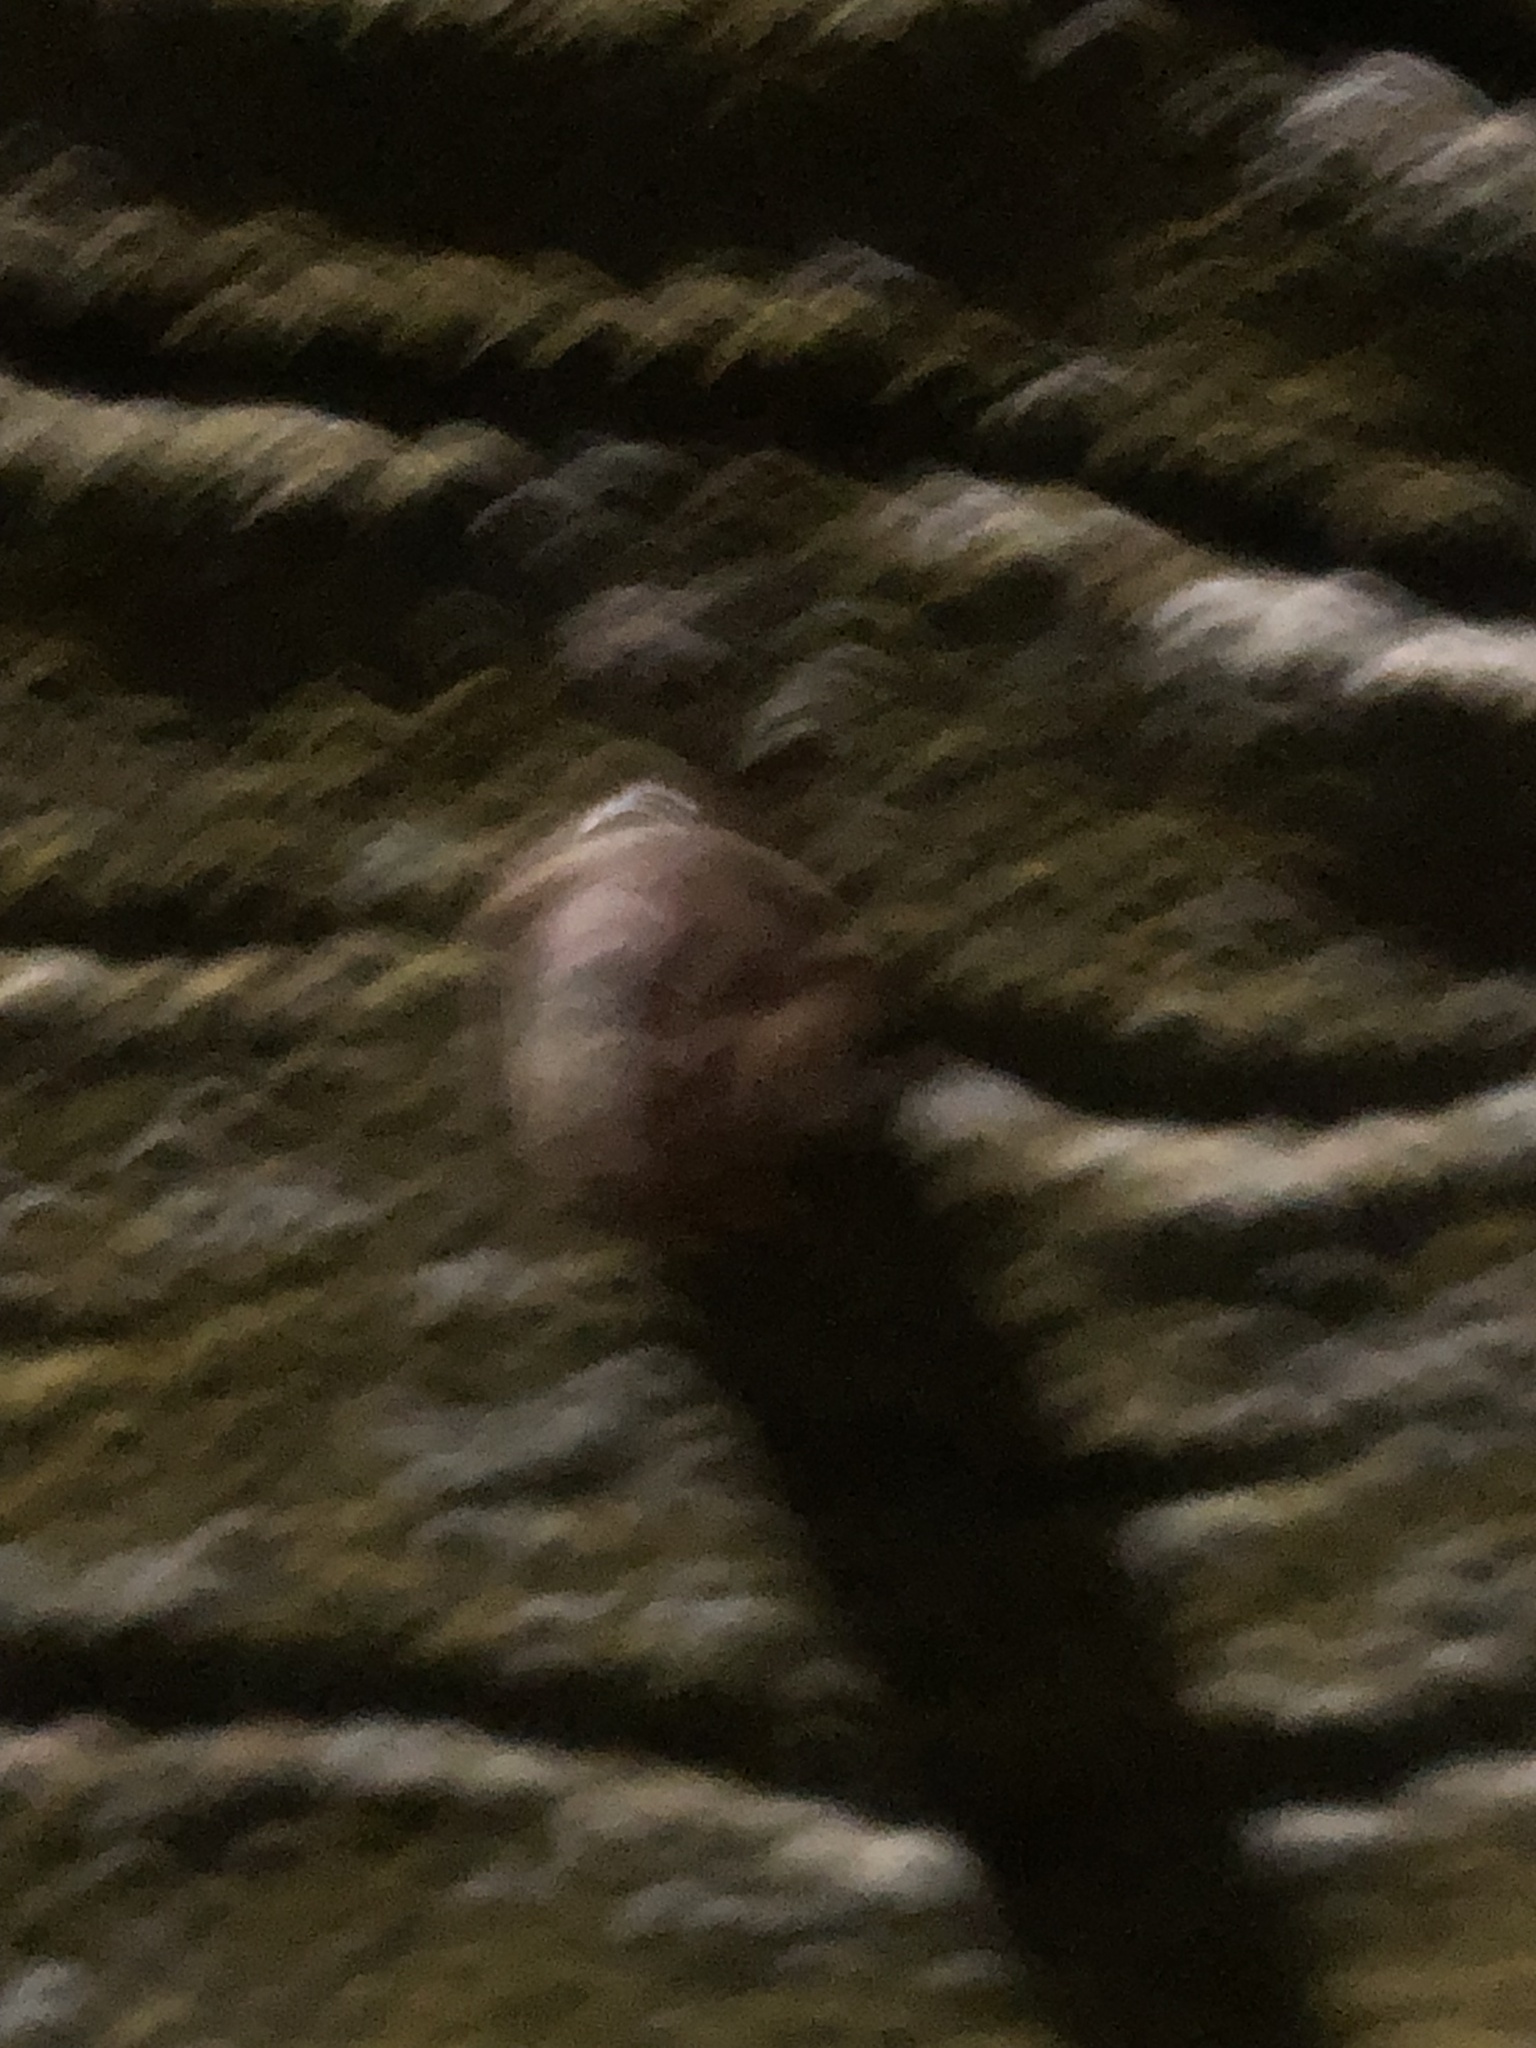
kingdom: Animalia
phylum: Mollusca
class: Gastropoda
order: Stylommatophora
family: Helicidae
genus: Cornu
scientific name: Cornu aspersum
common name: Brown garden snail
